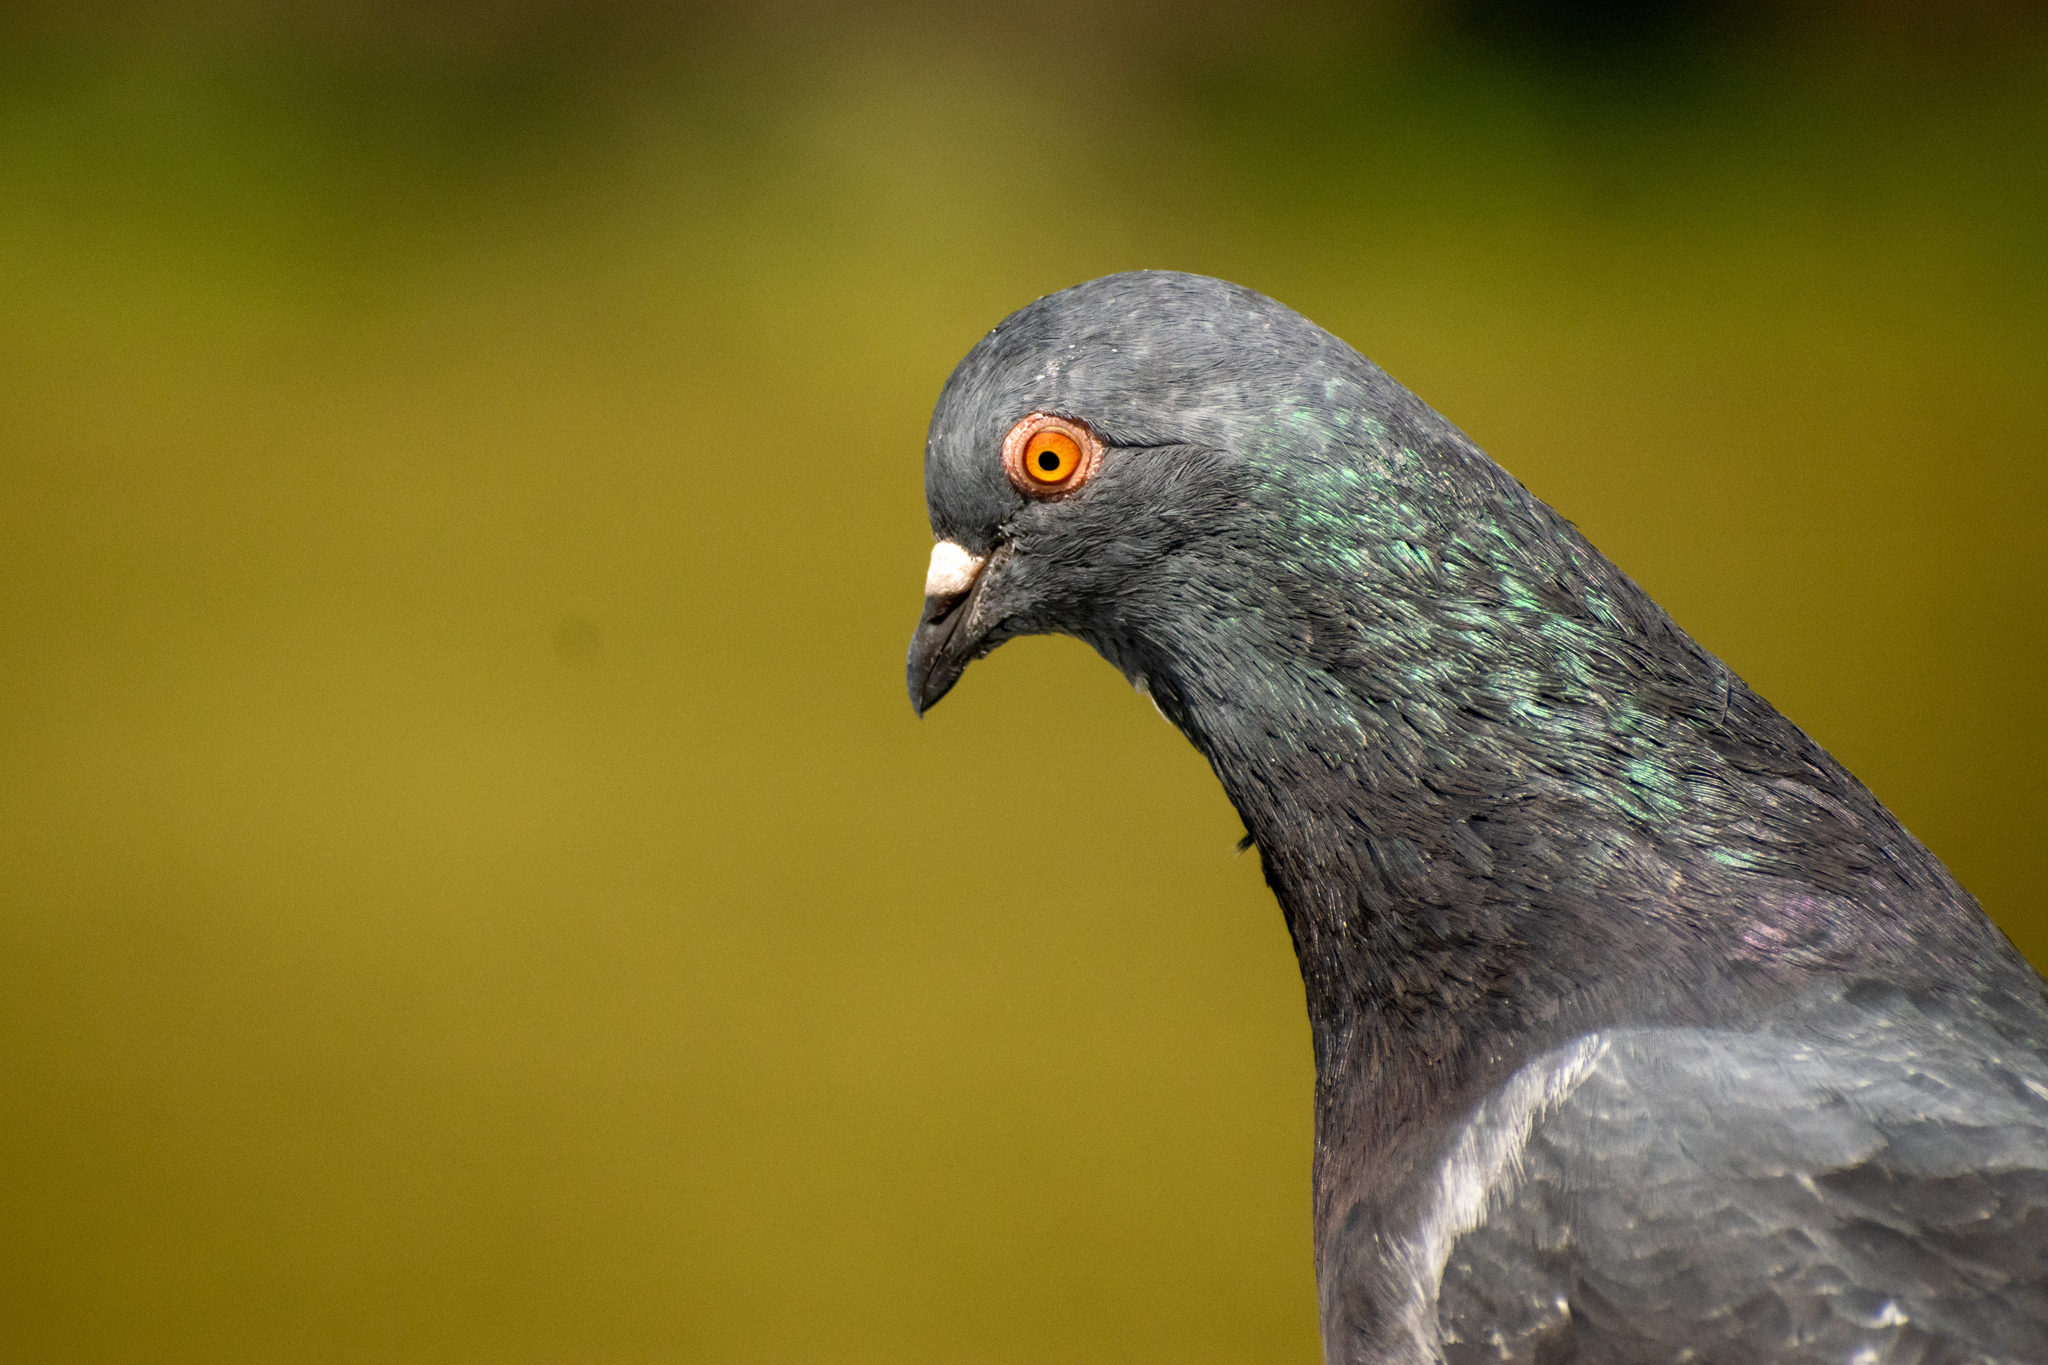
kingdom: Animalia
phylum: Chordata
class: Aves
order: Columbiformes
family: Columbidae
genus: Columba
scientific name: Columba livia
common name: Rock pigeon
